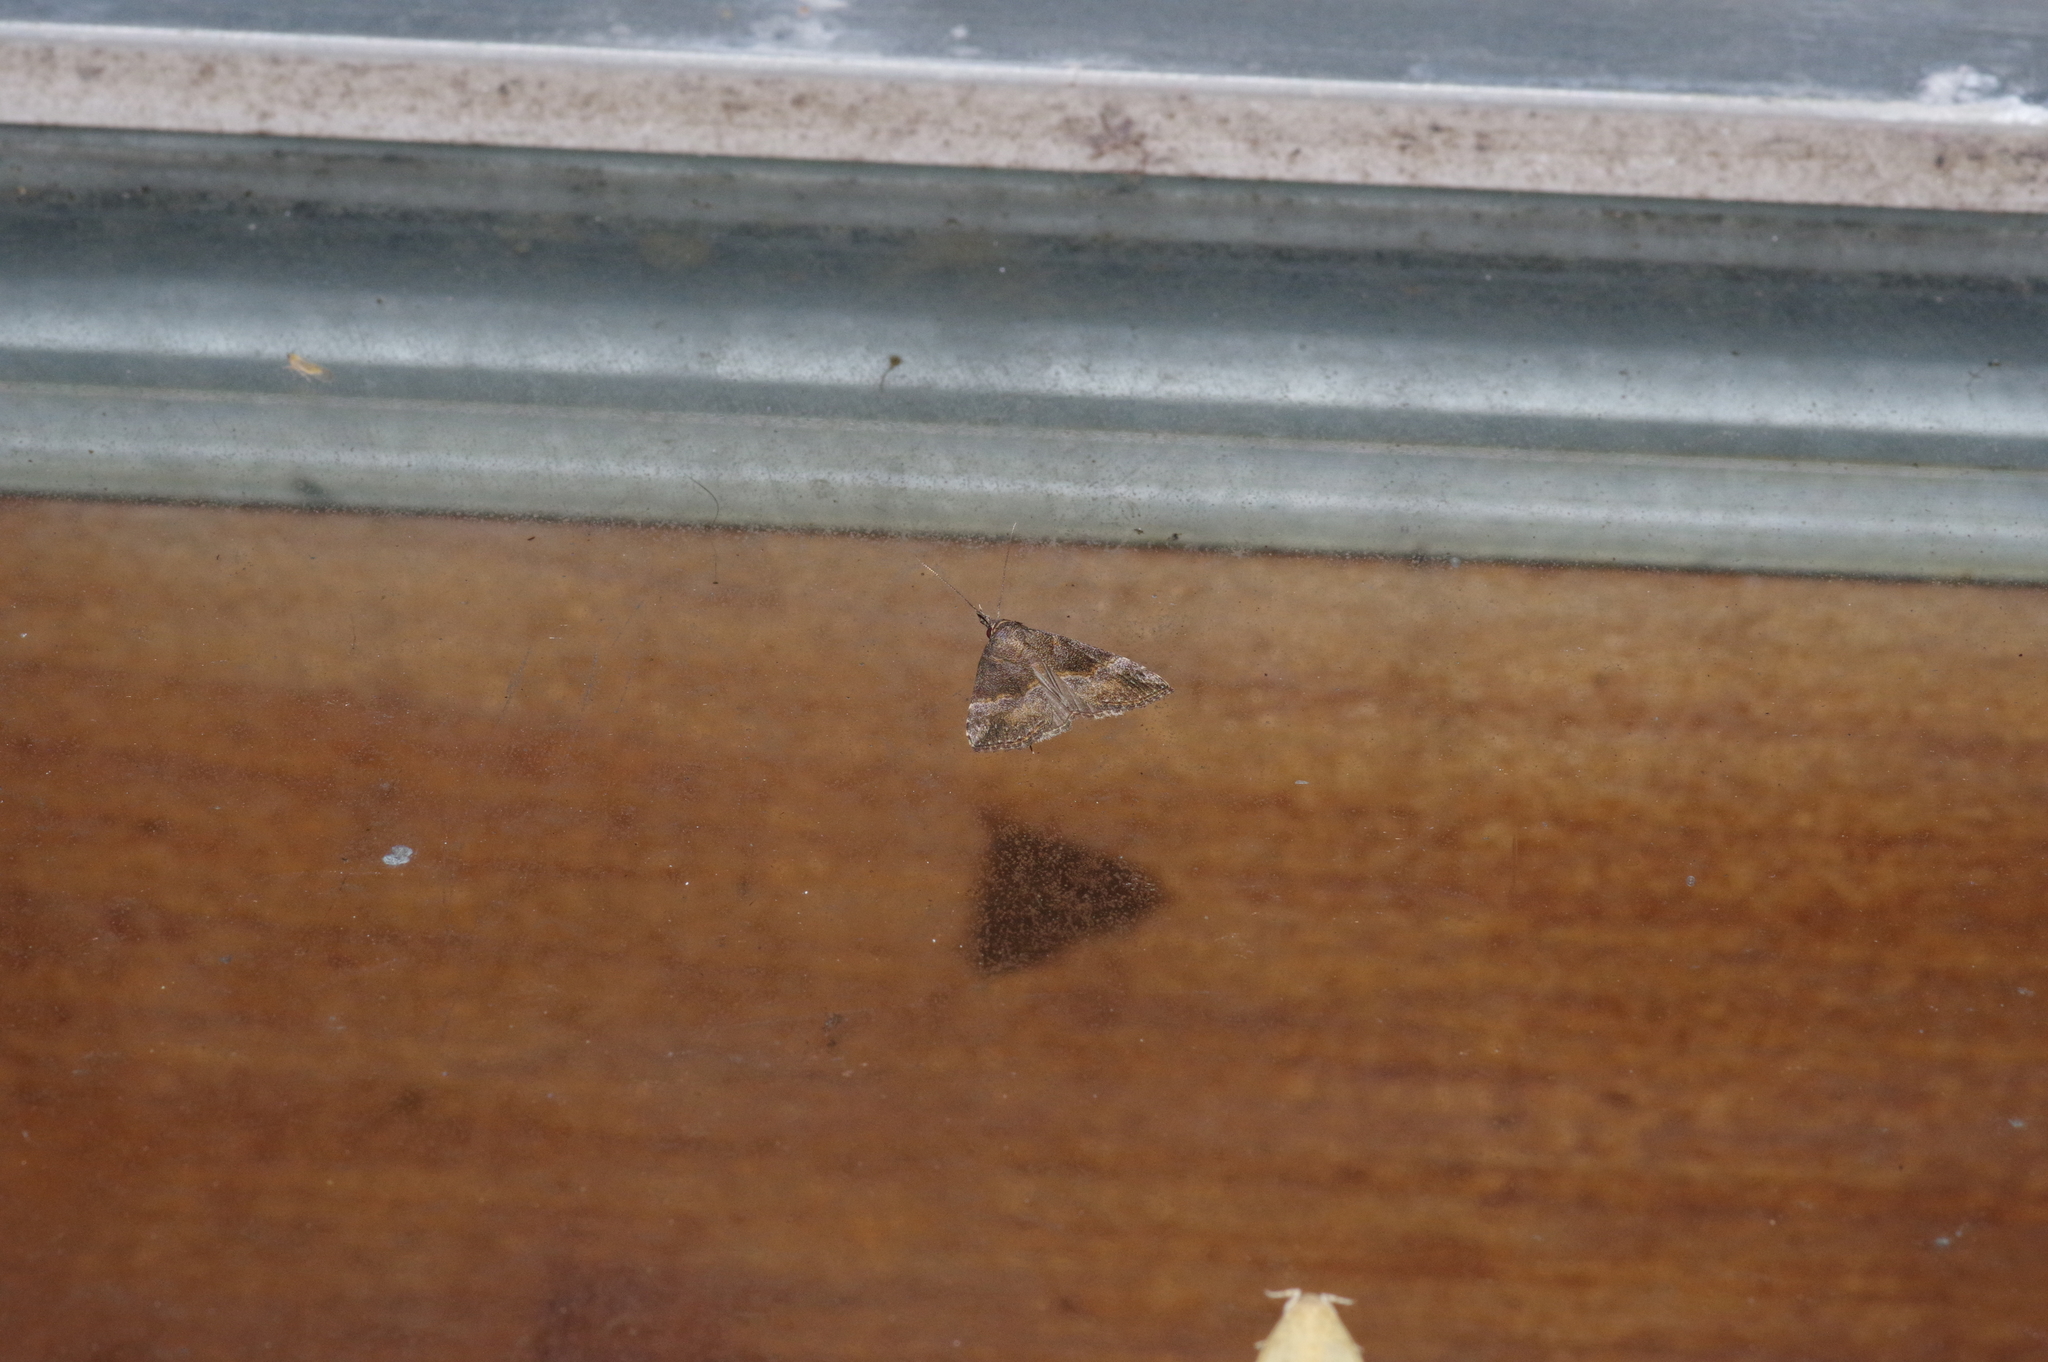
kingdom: Animalia
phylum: Arthropoda
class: Insecta
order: Lepidoptera
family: Erebidae
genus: Hypena
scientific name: Hypena indicatalis
